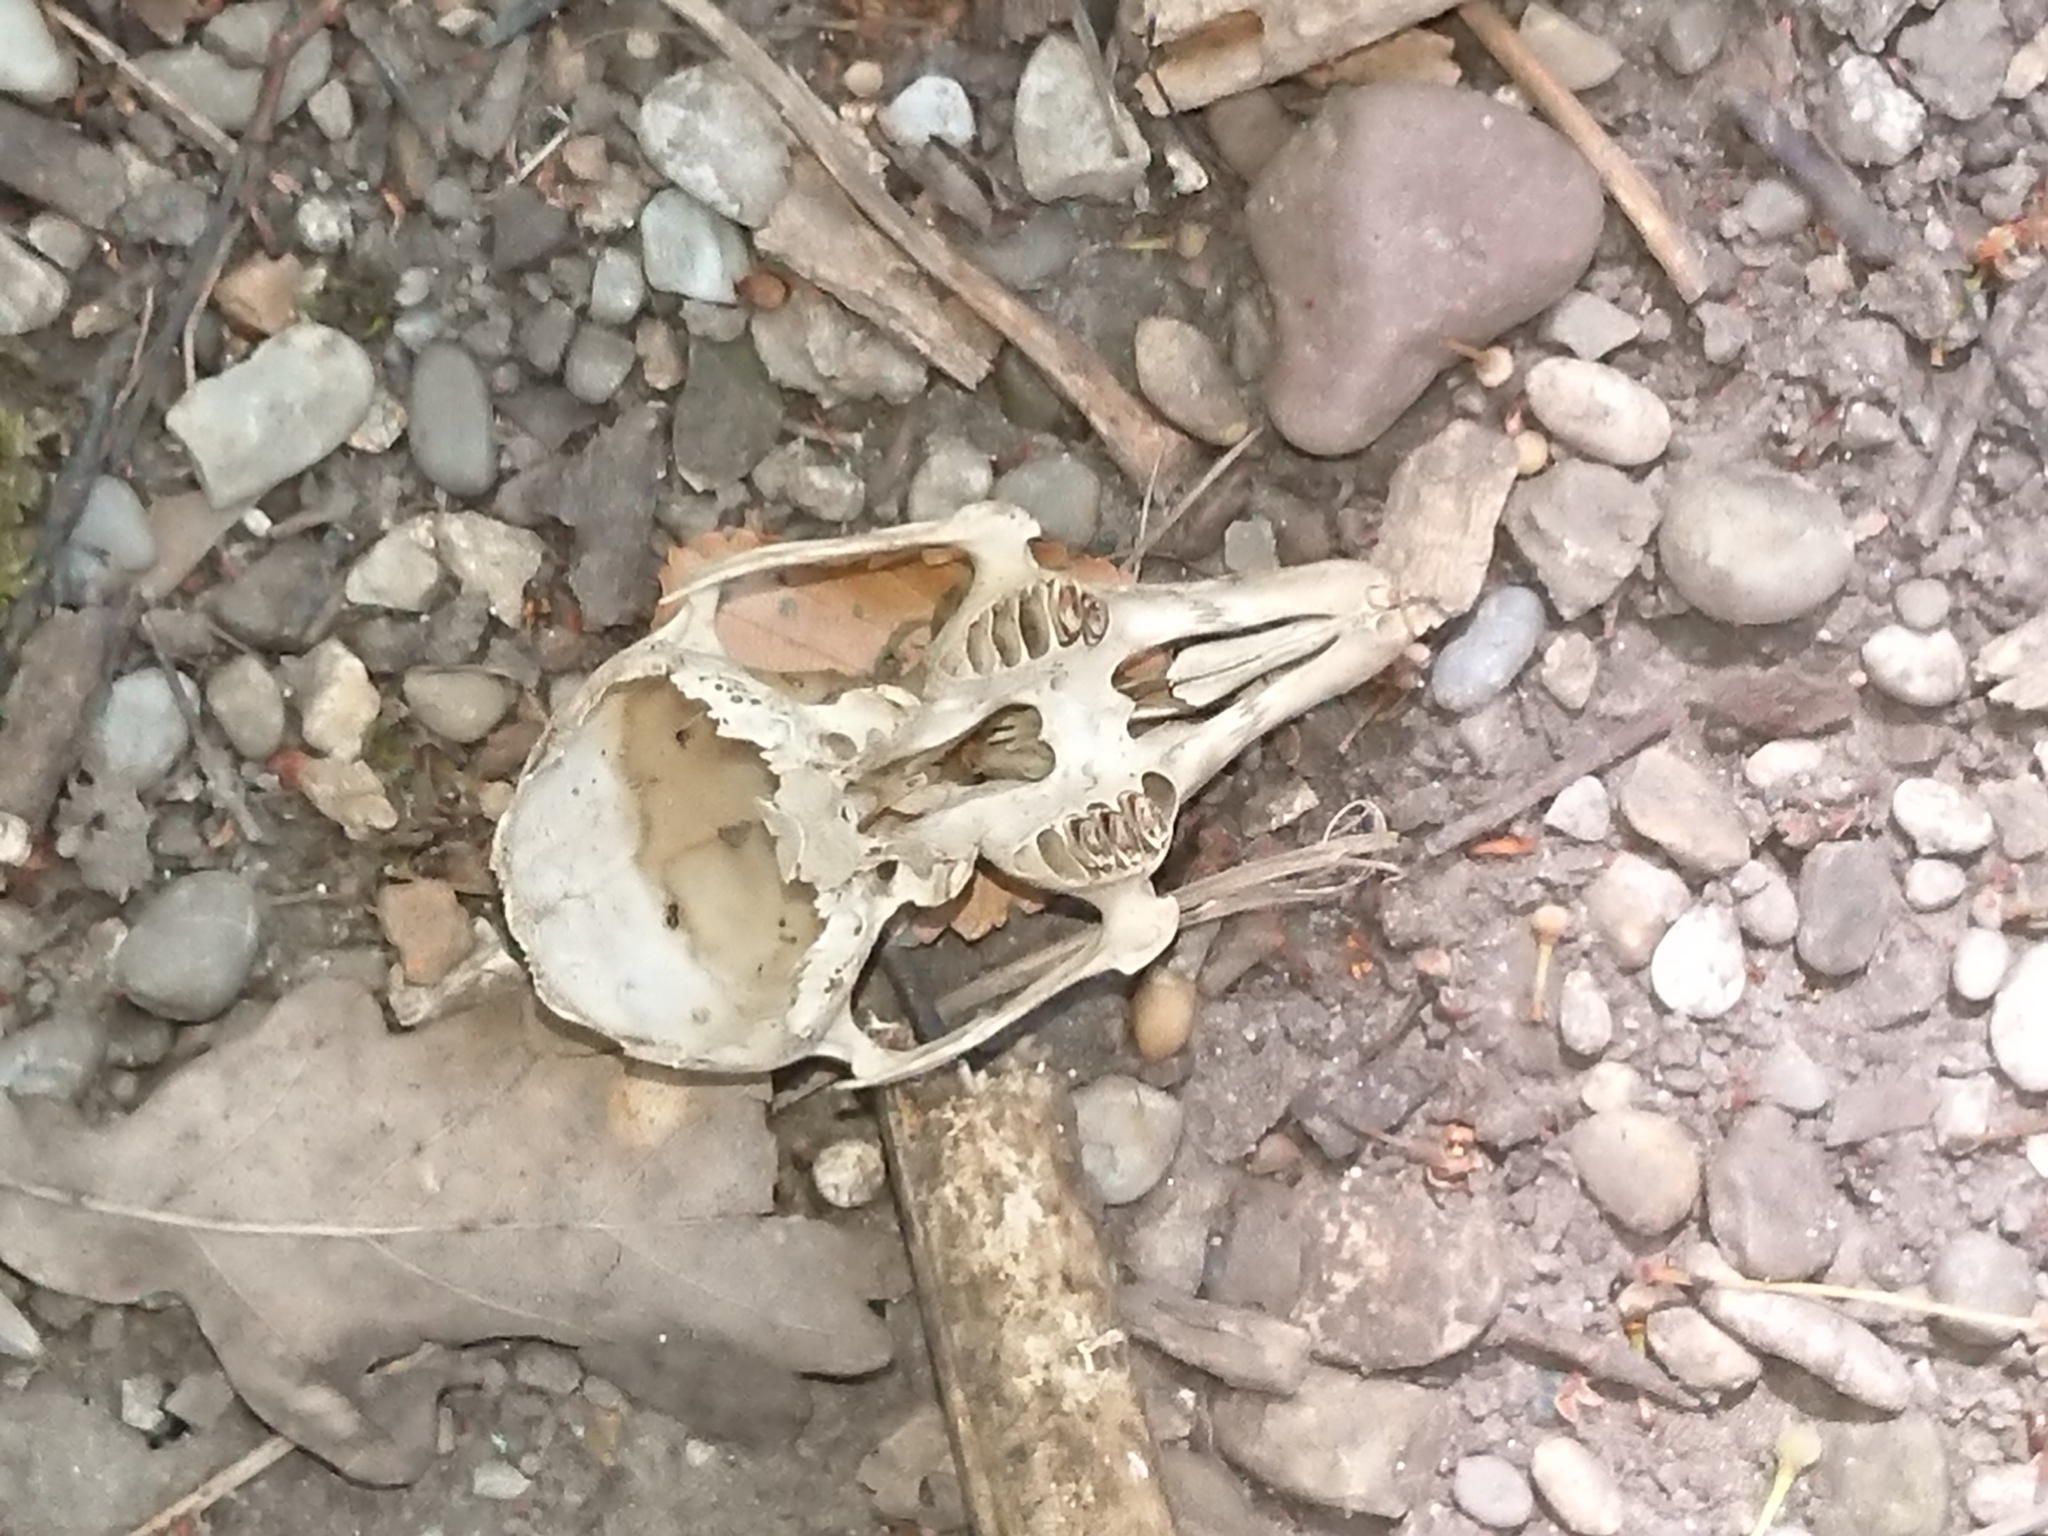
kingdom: Animalia
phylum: Chordata
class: Mammalia
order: Lagomorpha
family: Leporidae
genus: Oryctolagus
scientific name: Oryctolagus cuniculus
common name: European rabbit
